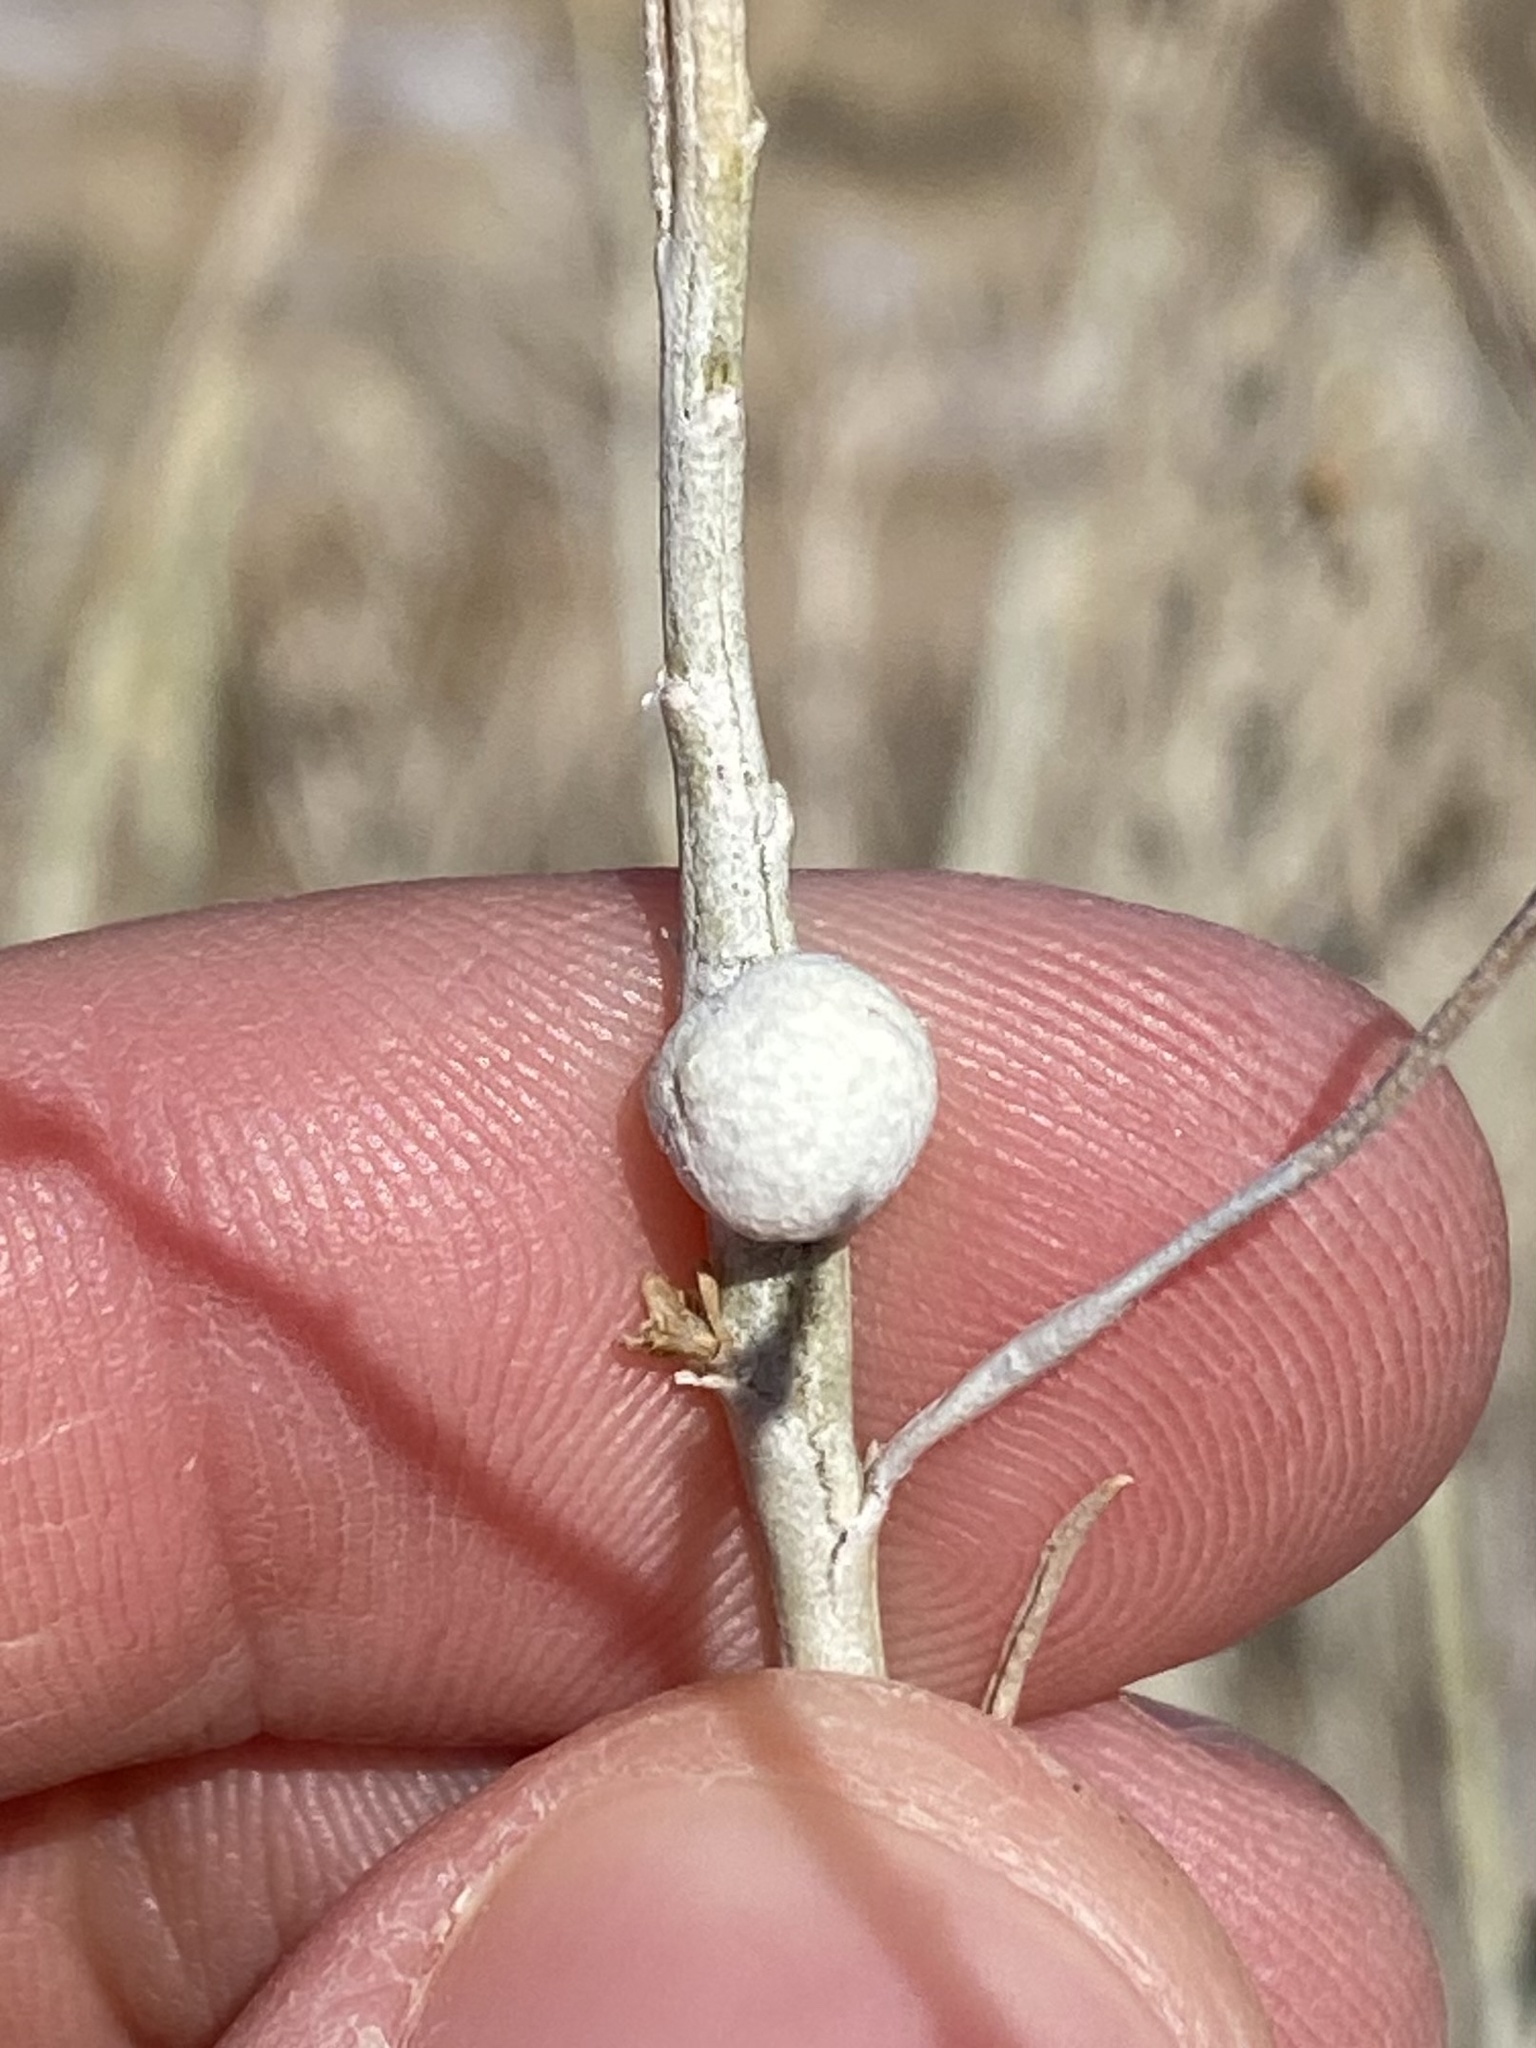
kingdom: Animalia
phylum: Arthropoda
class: Insecta
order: Diptera
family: Tephritidae
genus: Aciurina
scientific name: Aciurina trixa
